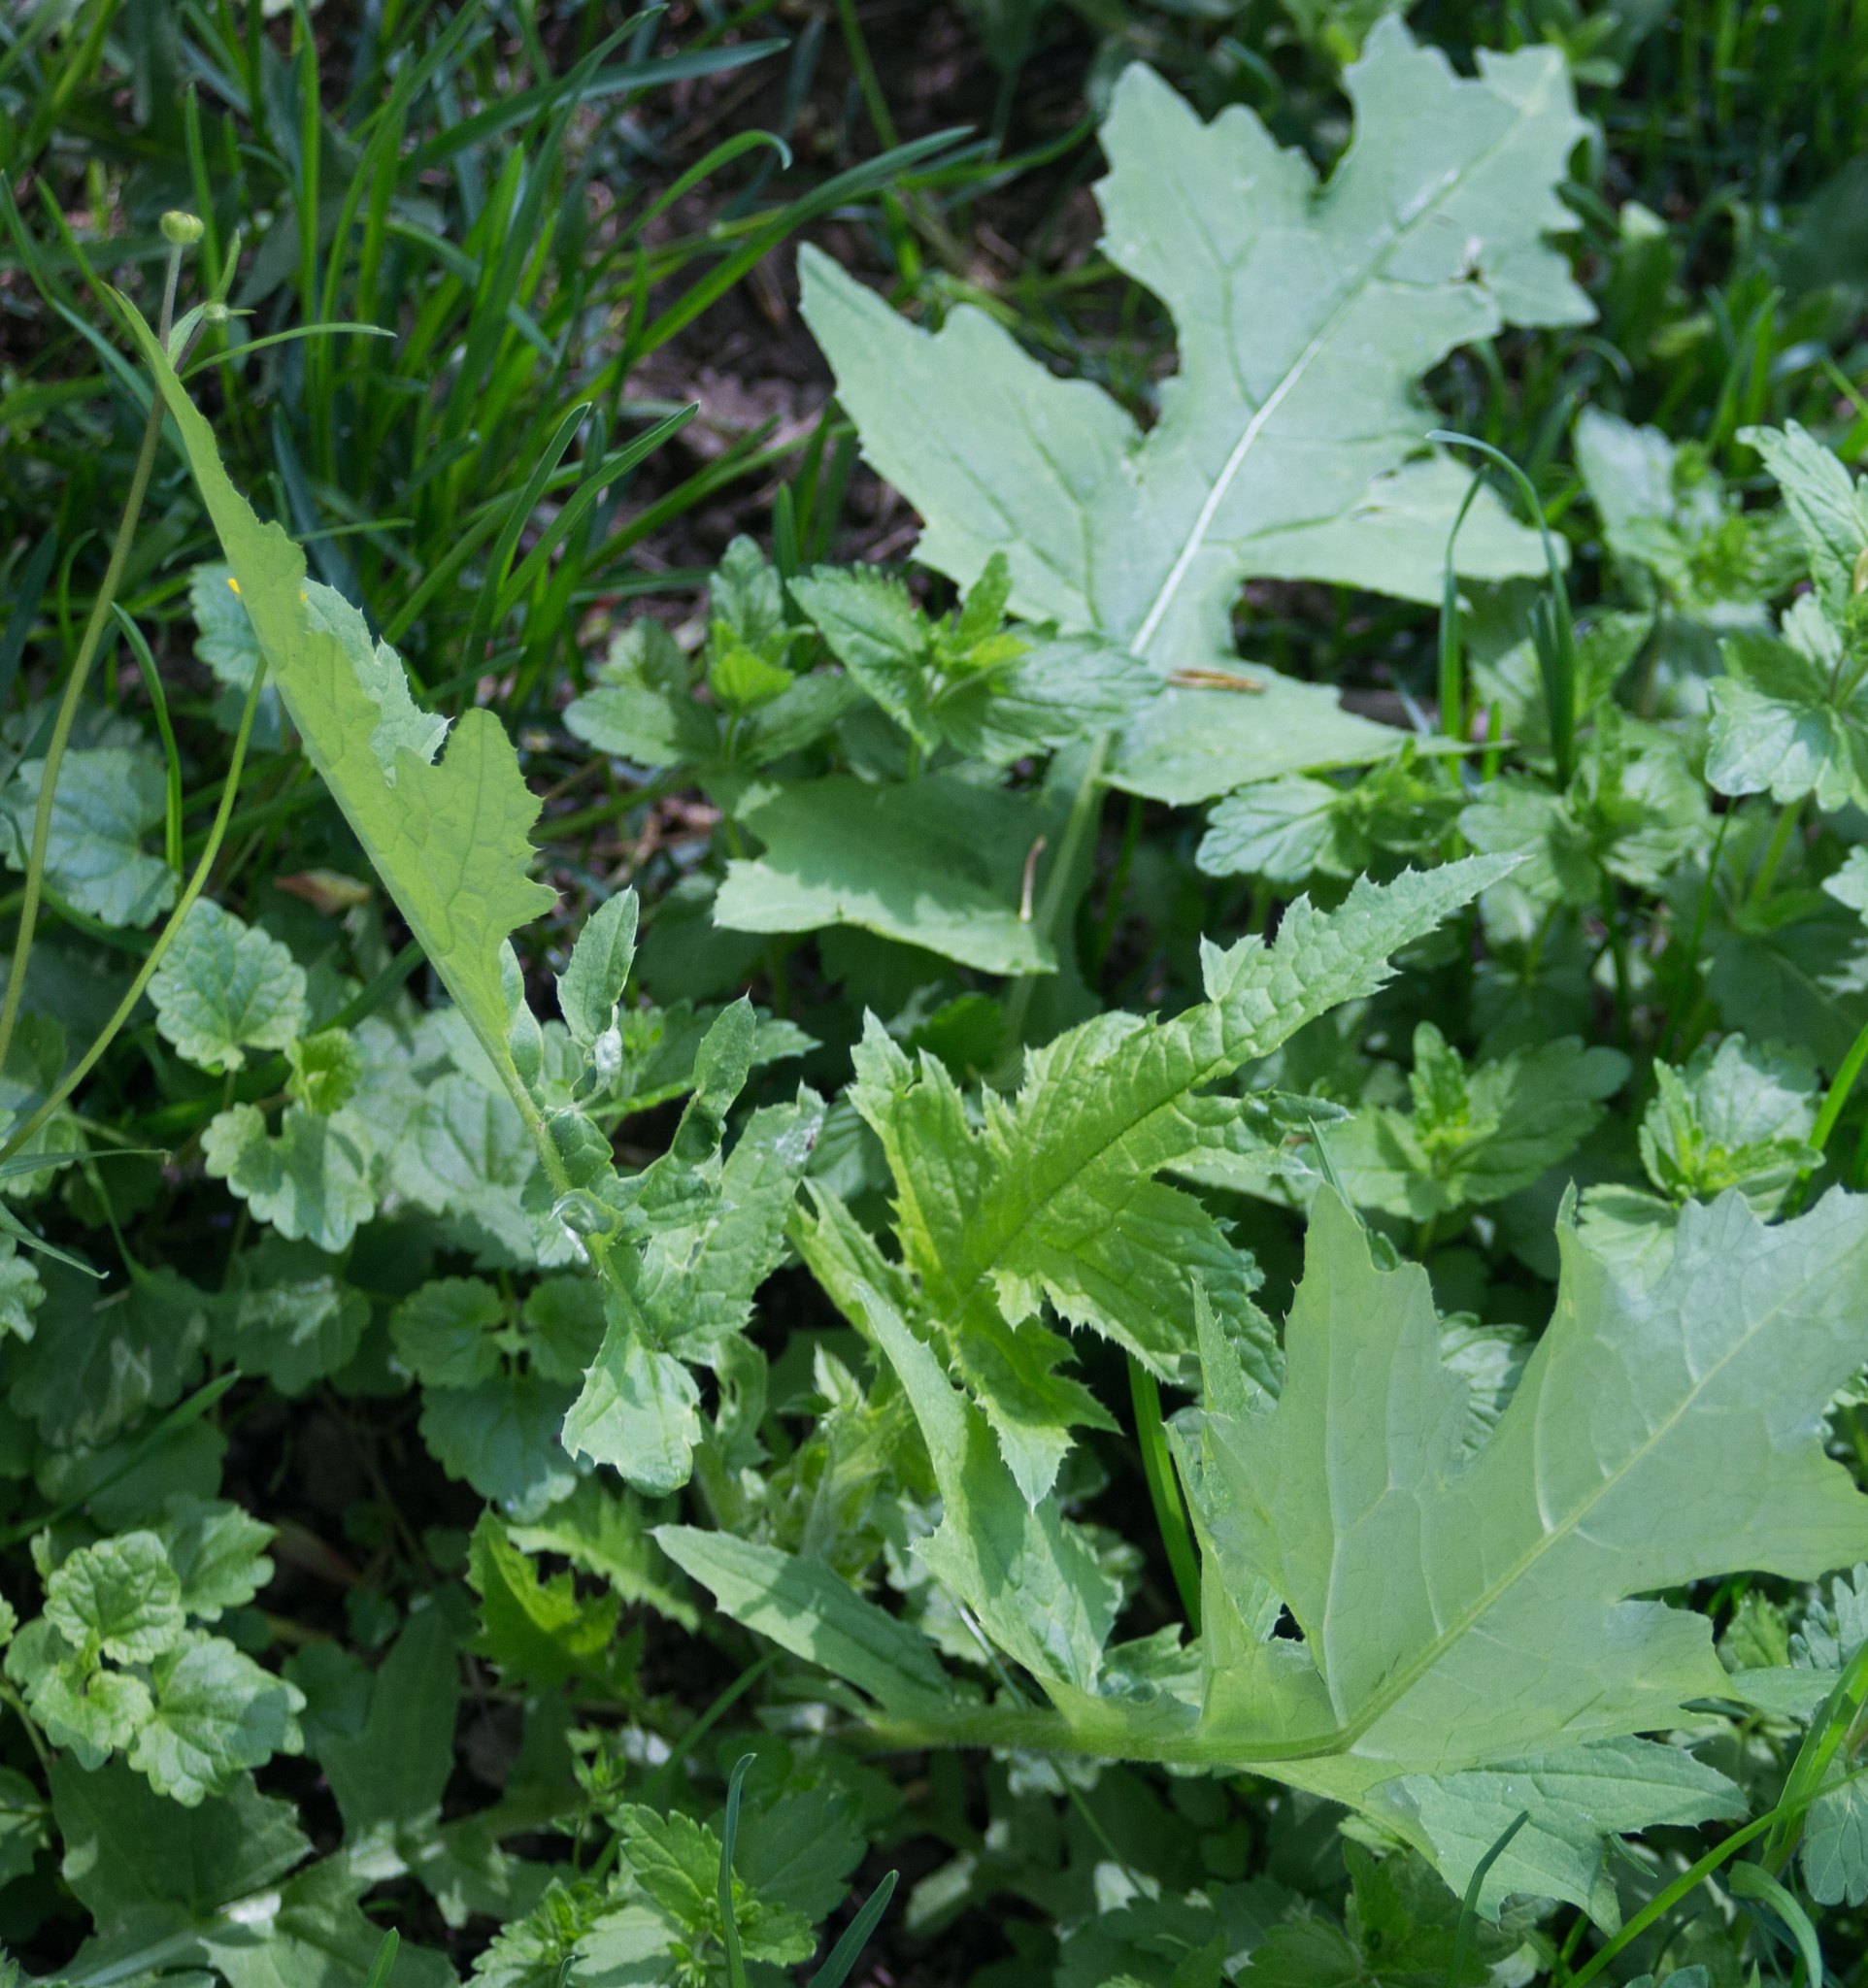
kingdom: Plantae
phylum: Tracheophyta
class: Magnoliopsida
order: Asterales
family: Asteraceae
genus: Carduus
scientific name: Carduus crispus
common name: Welted thistle
